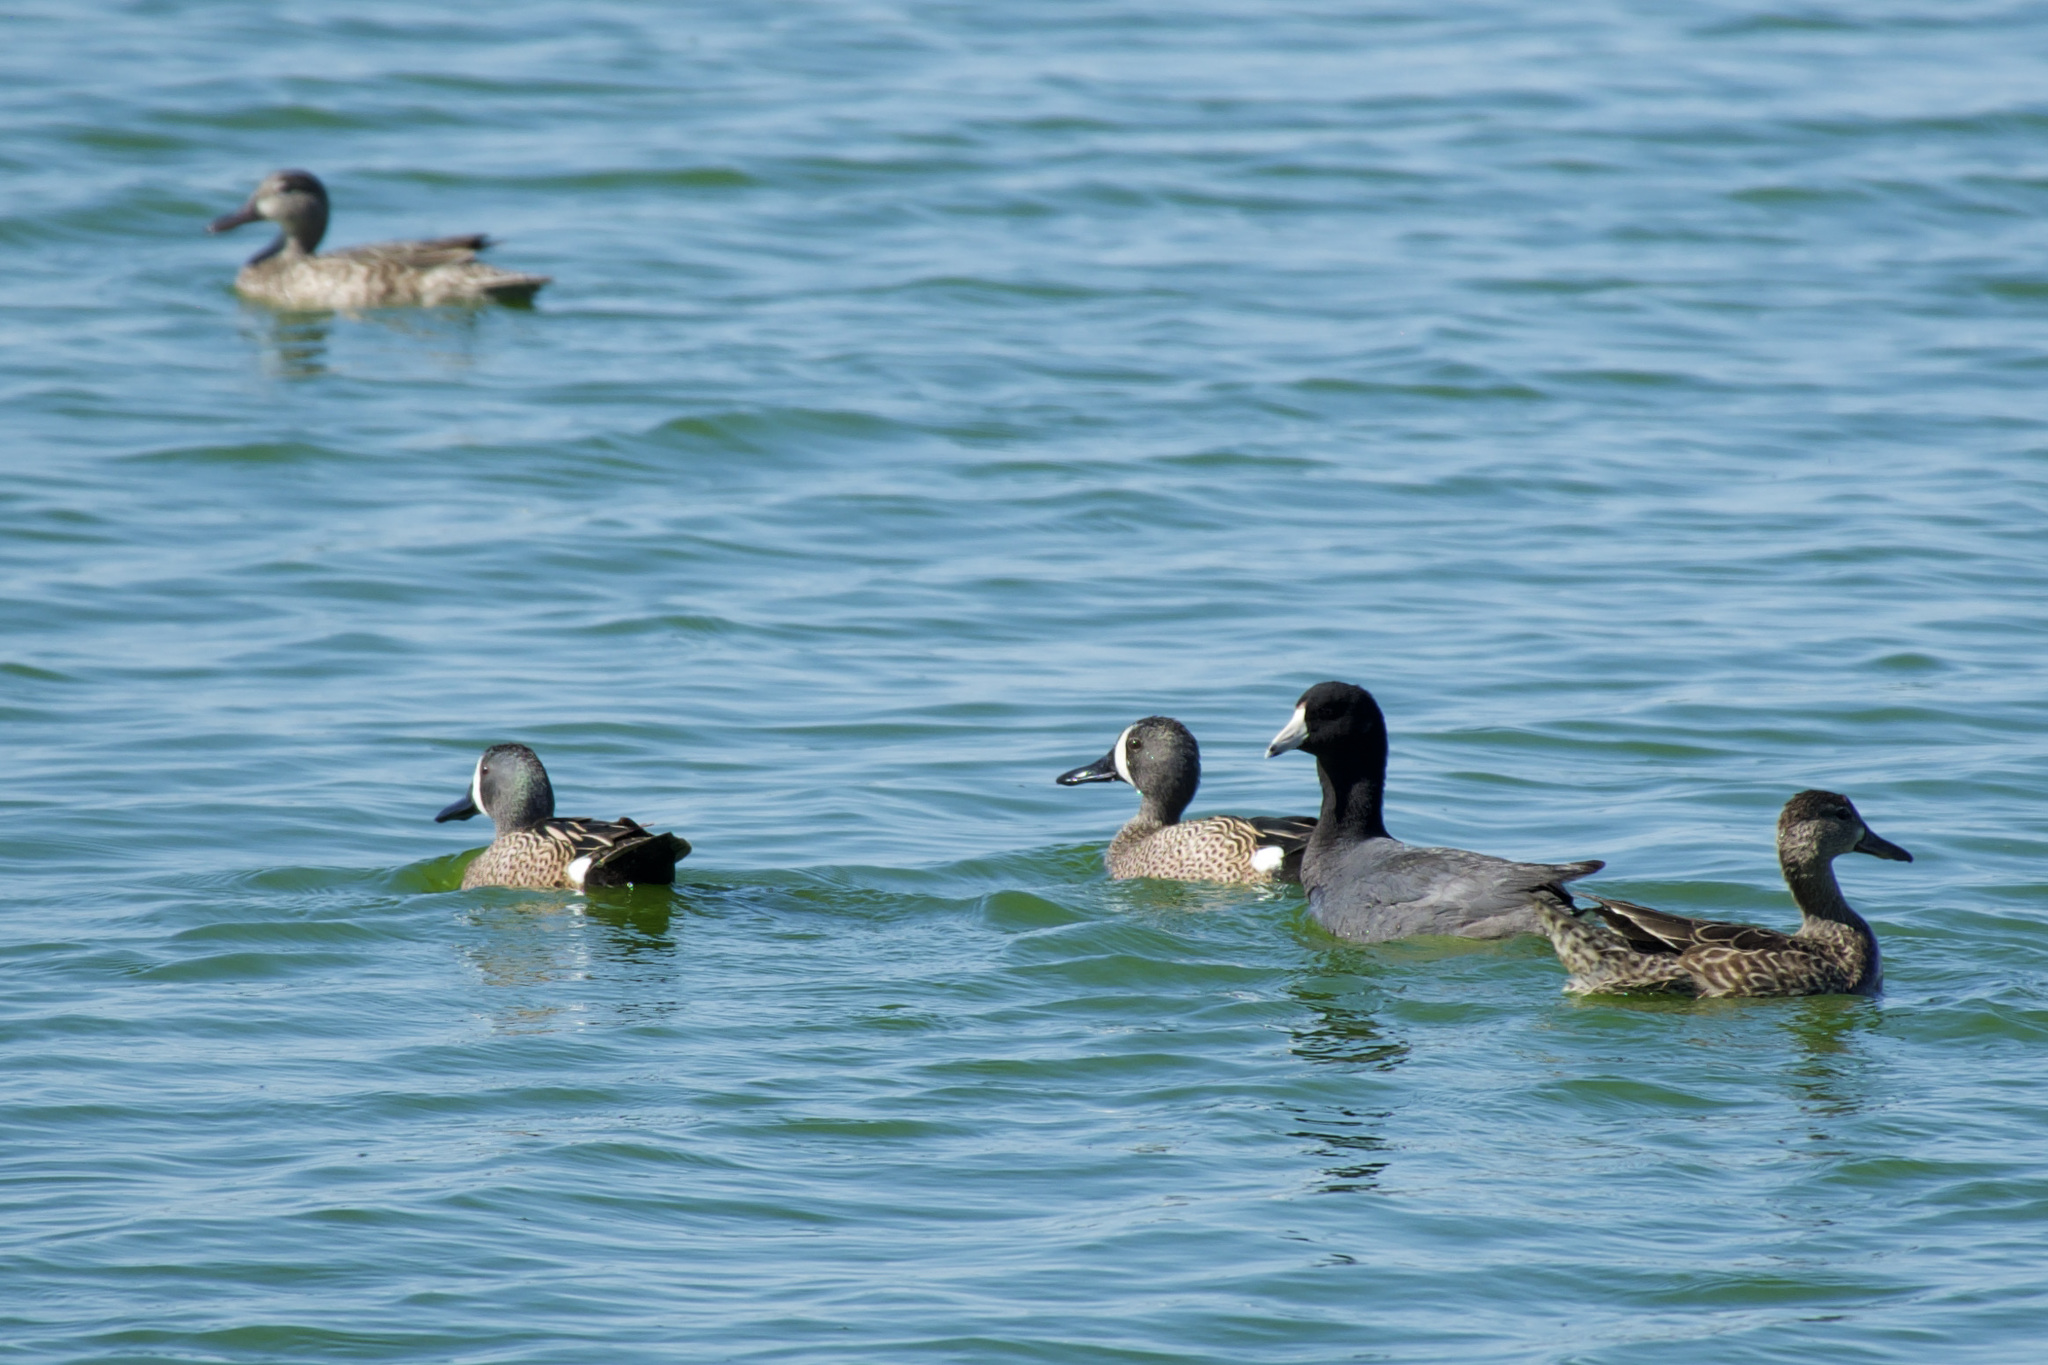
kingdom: Animalia
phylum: Chordata
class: Aves
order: Anseriformes
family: Anatidae
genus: Spatula
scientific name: Spatula discors
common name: Blue-winged teal
